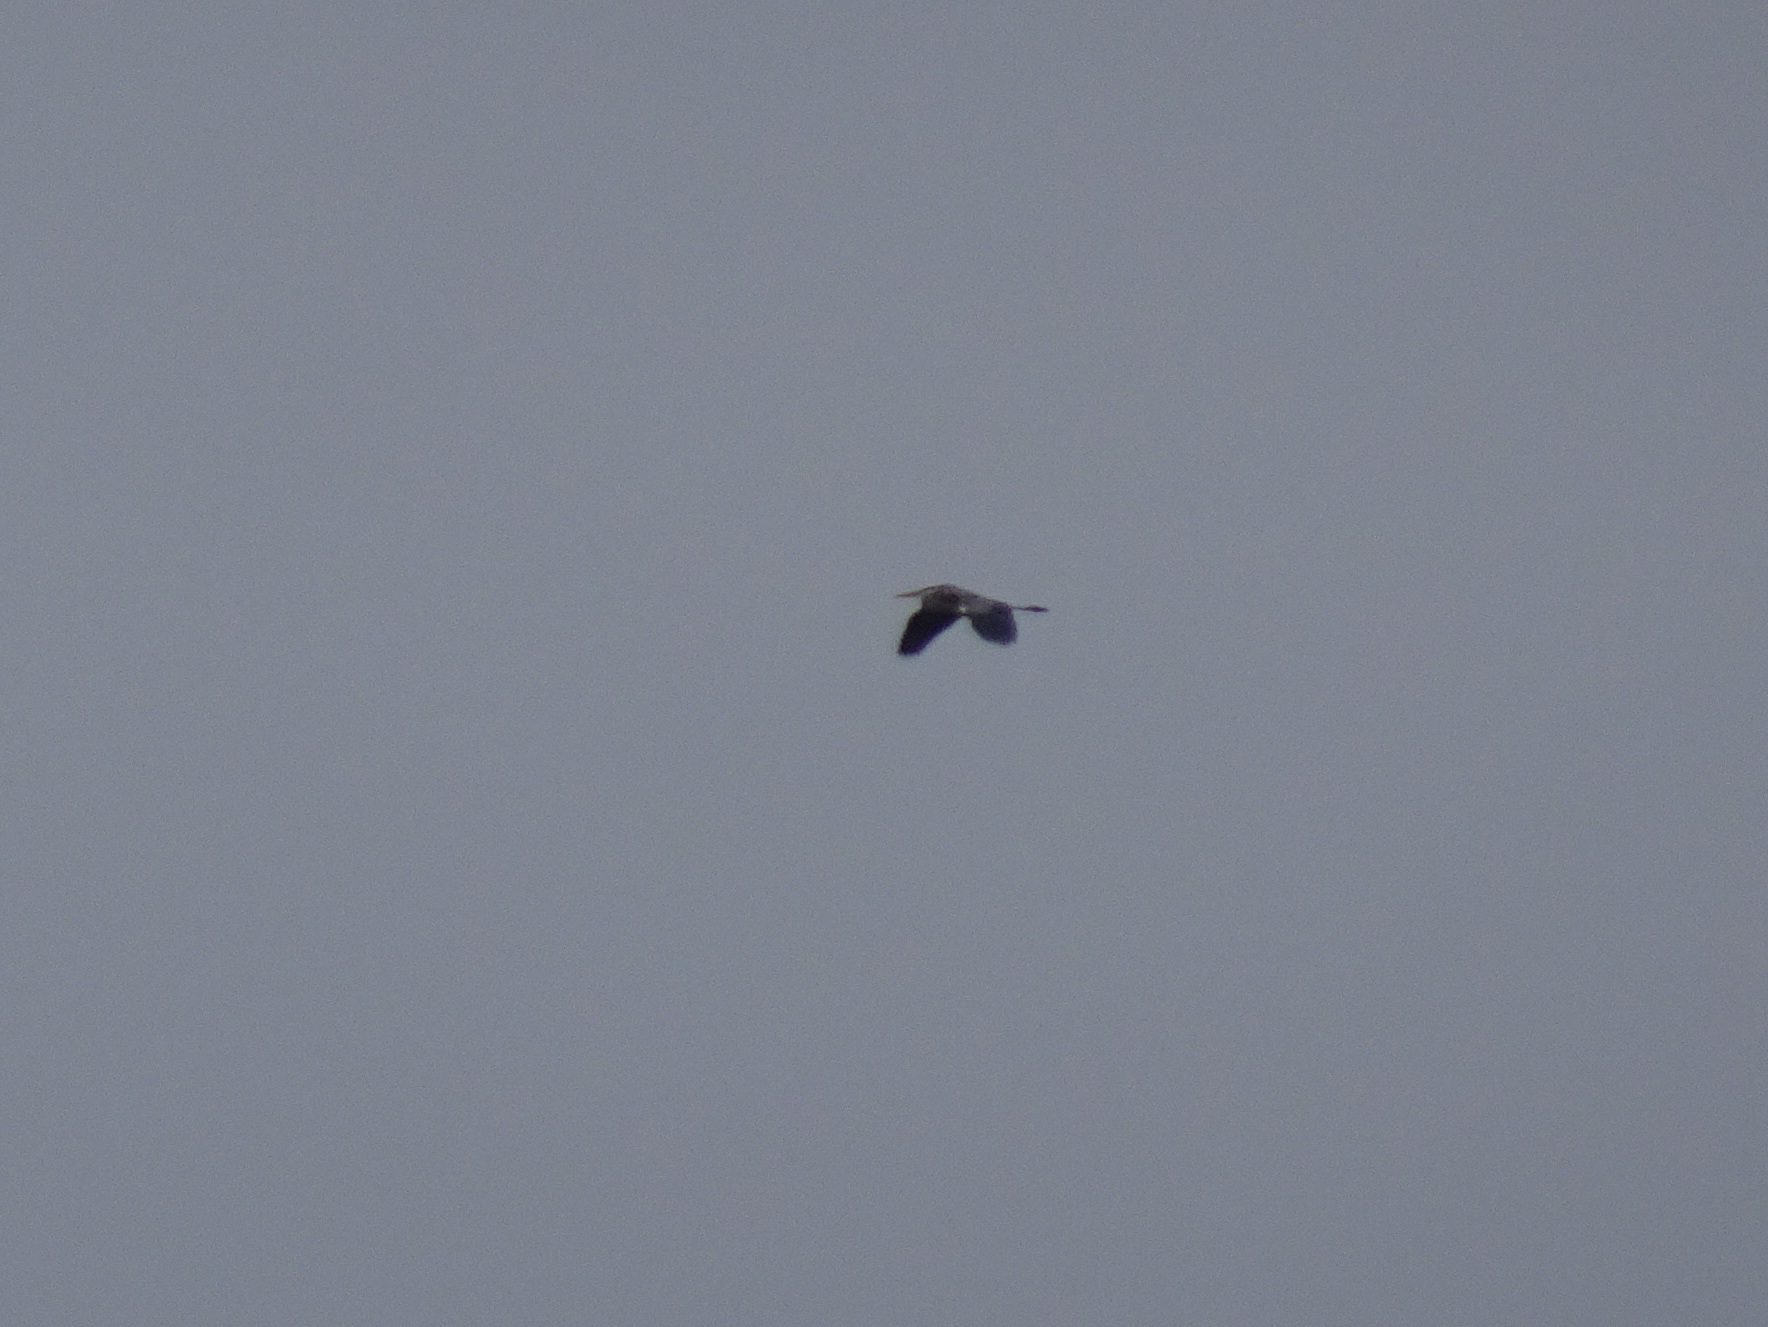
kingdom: Animalia
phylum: Chordata
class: Aves
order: Pelecaniformes
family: Ardeidae
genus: Ardea
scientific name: Ardea herodias
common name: Great blue heron
